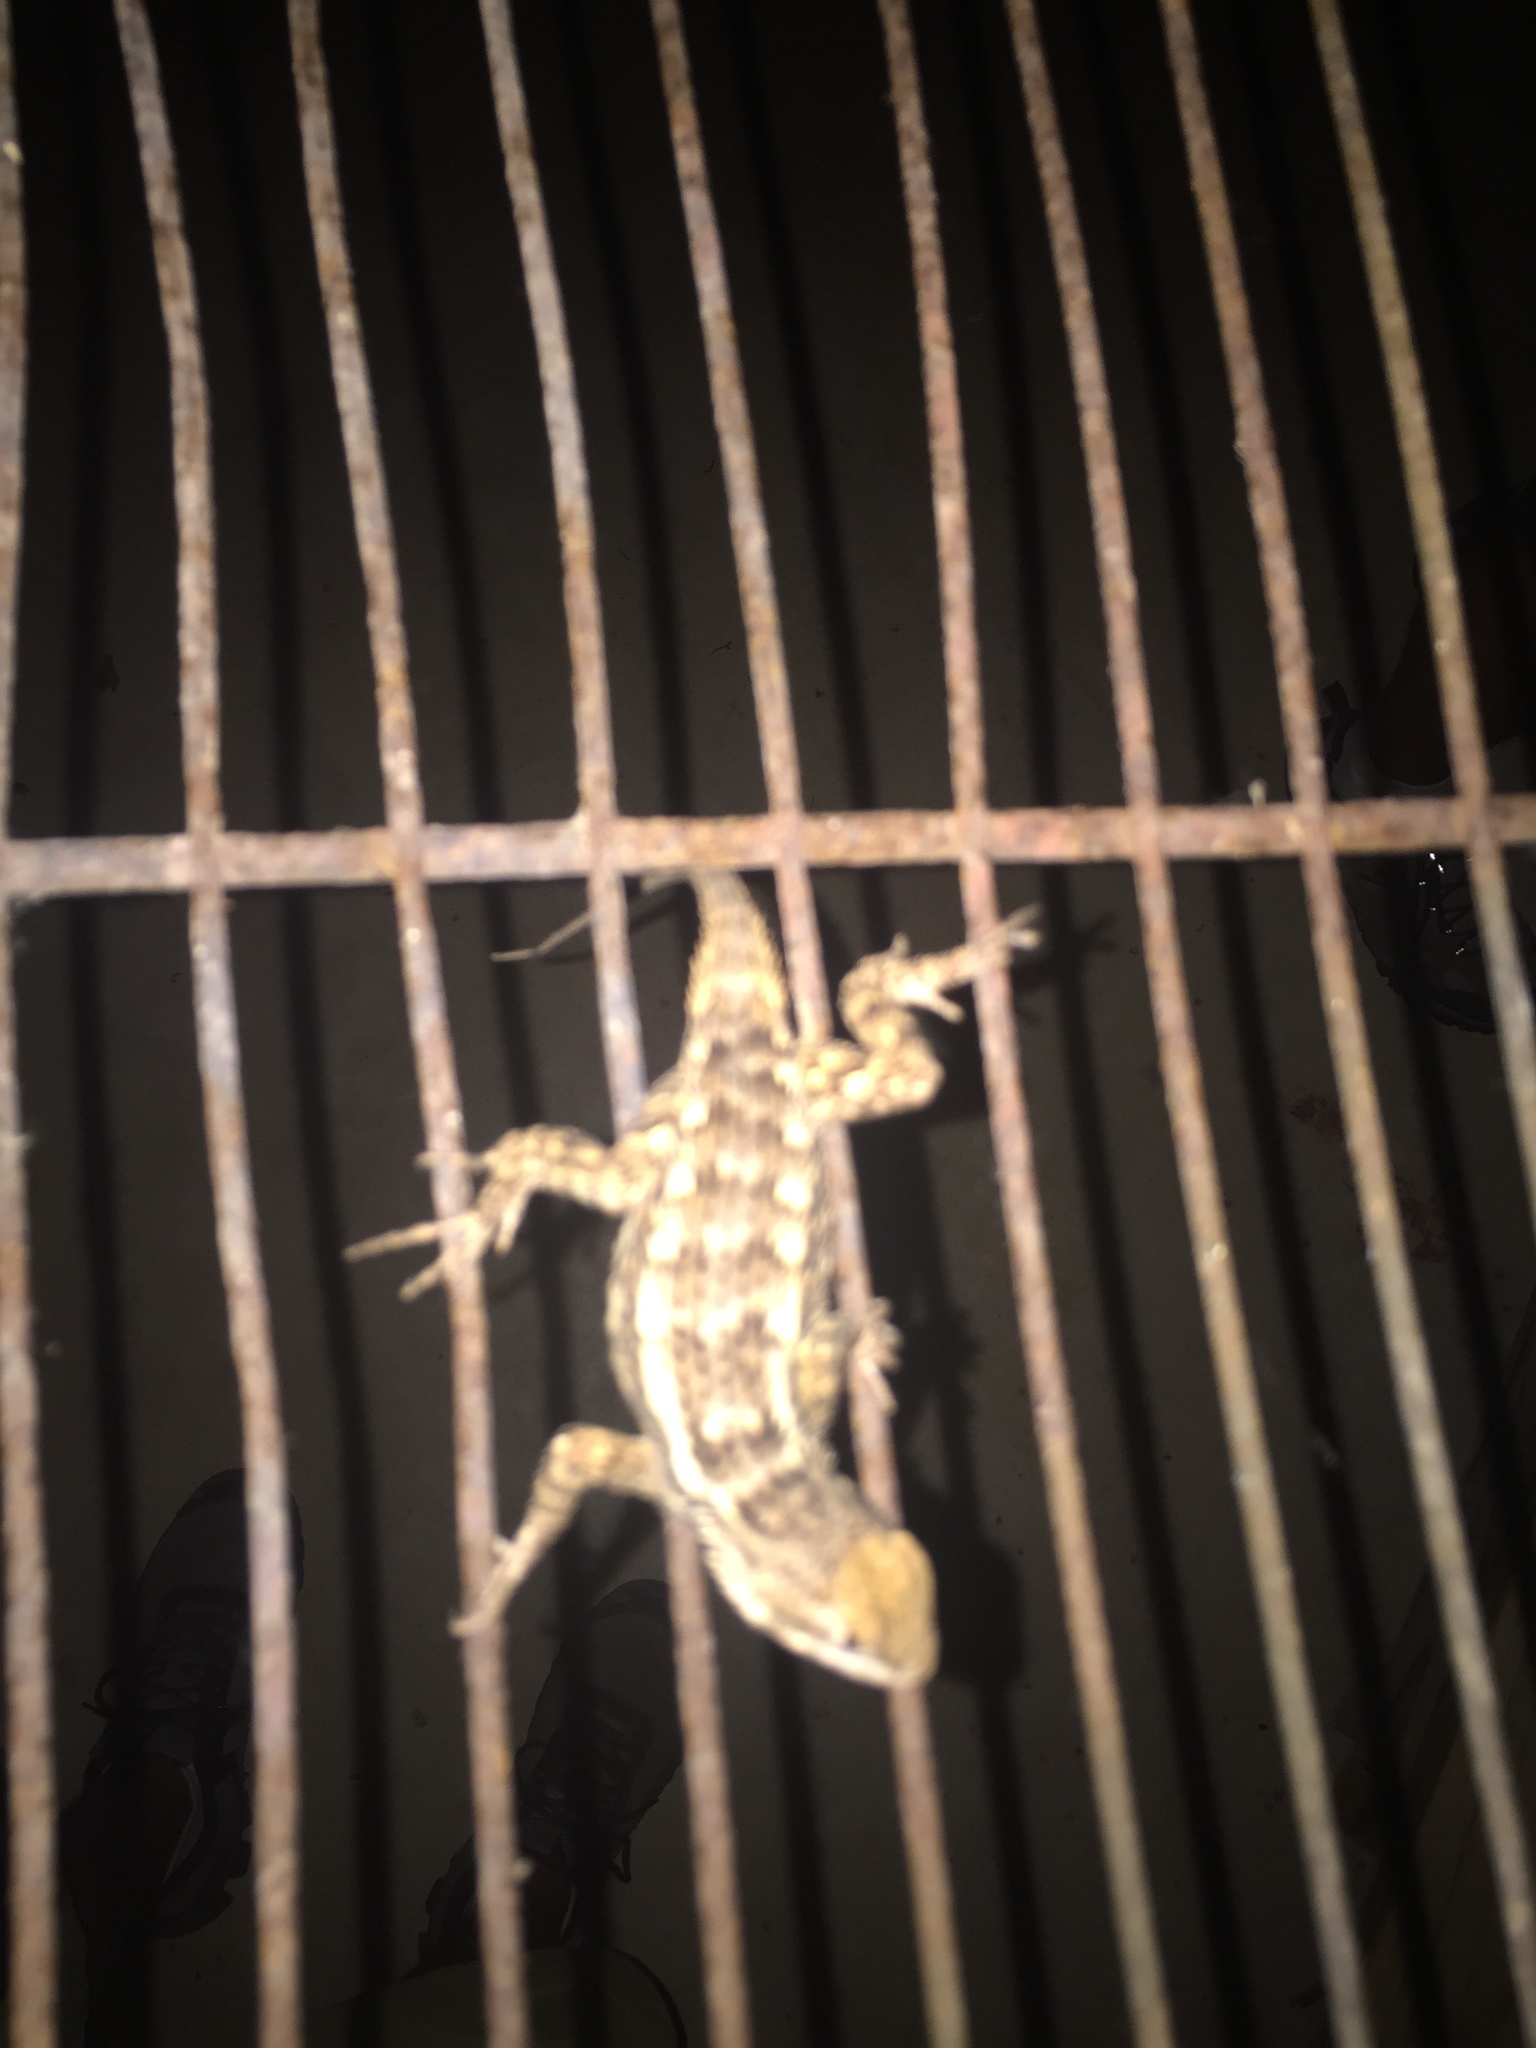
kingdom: Animalia
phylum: Chordata
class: Squamata
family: Phrynosomatidae
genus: Sceloporus
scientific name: Sceloporus olivaceus
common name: Texas spiny lizard
